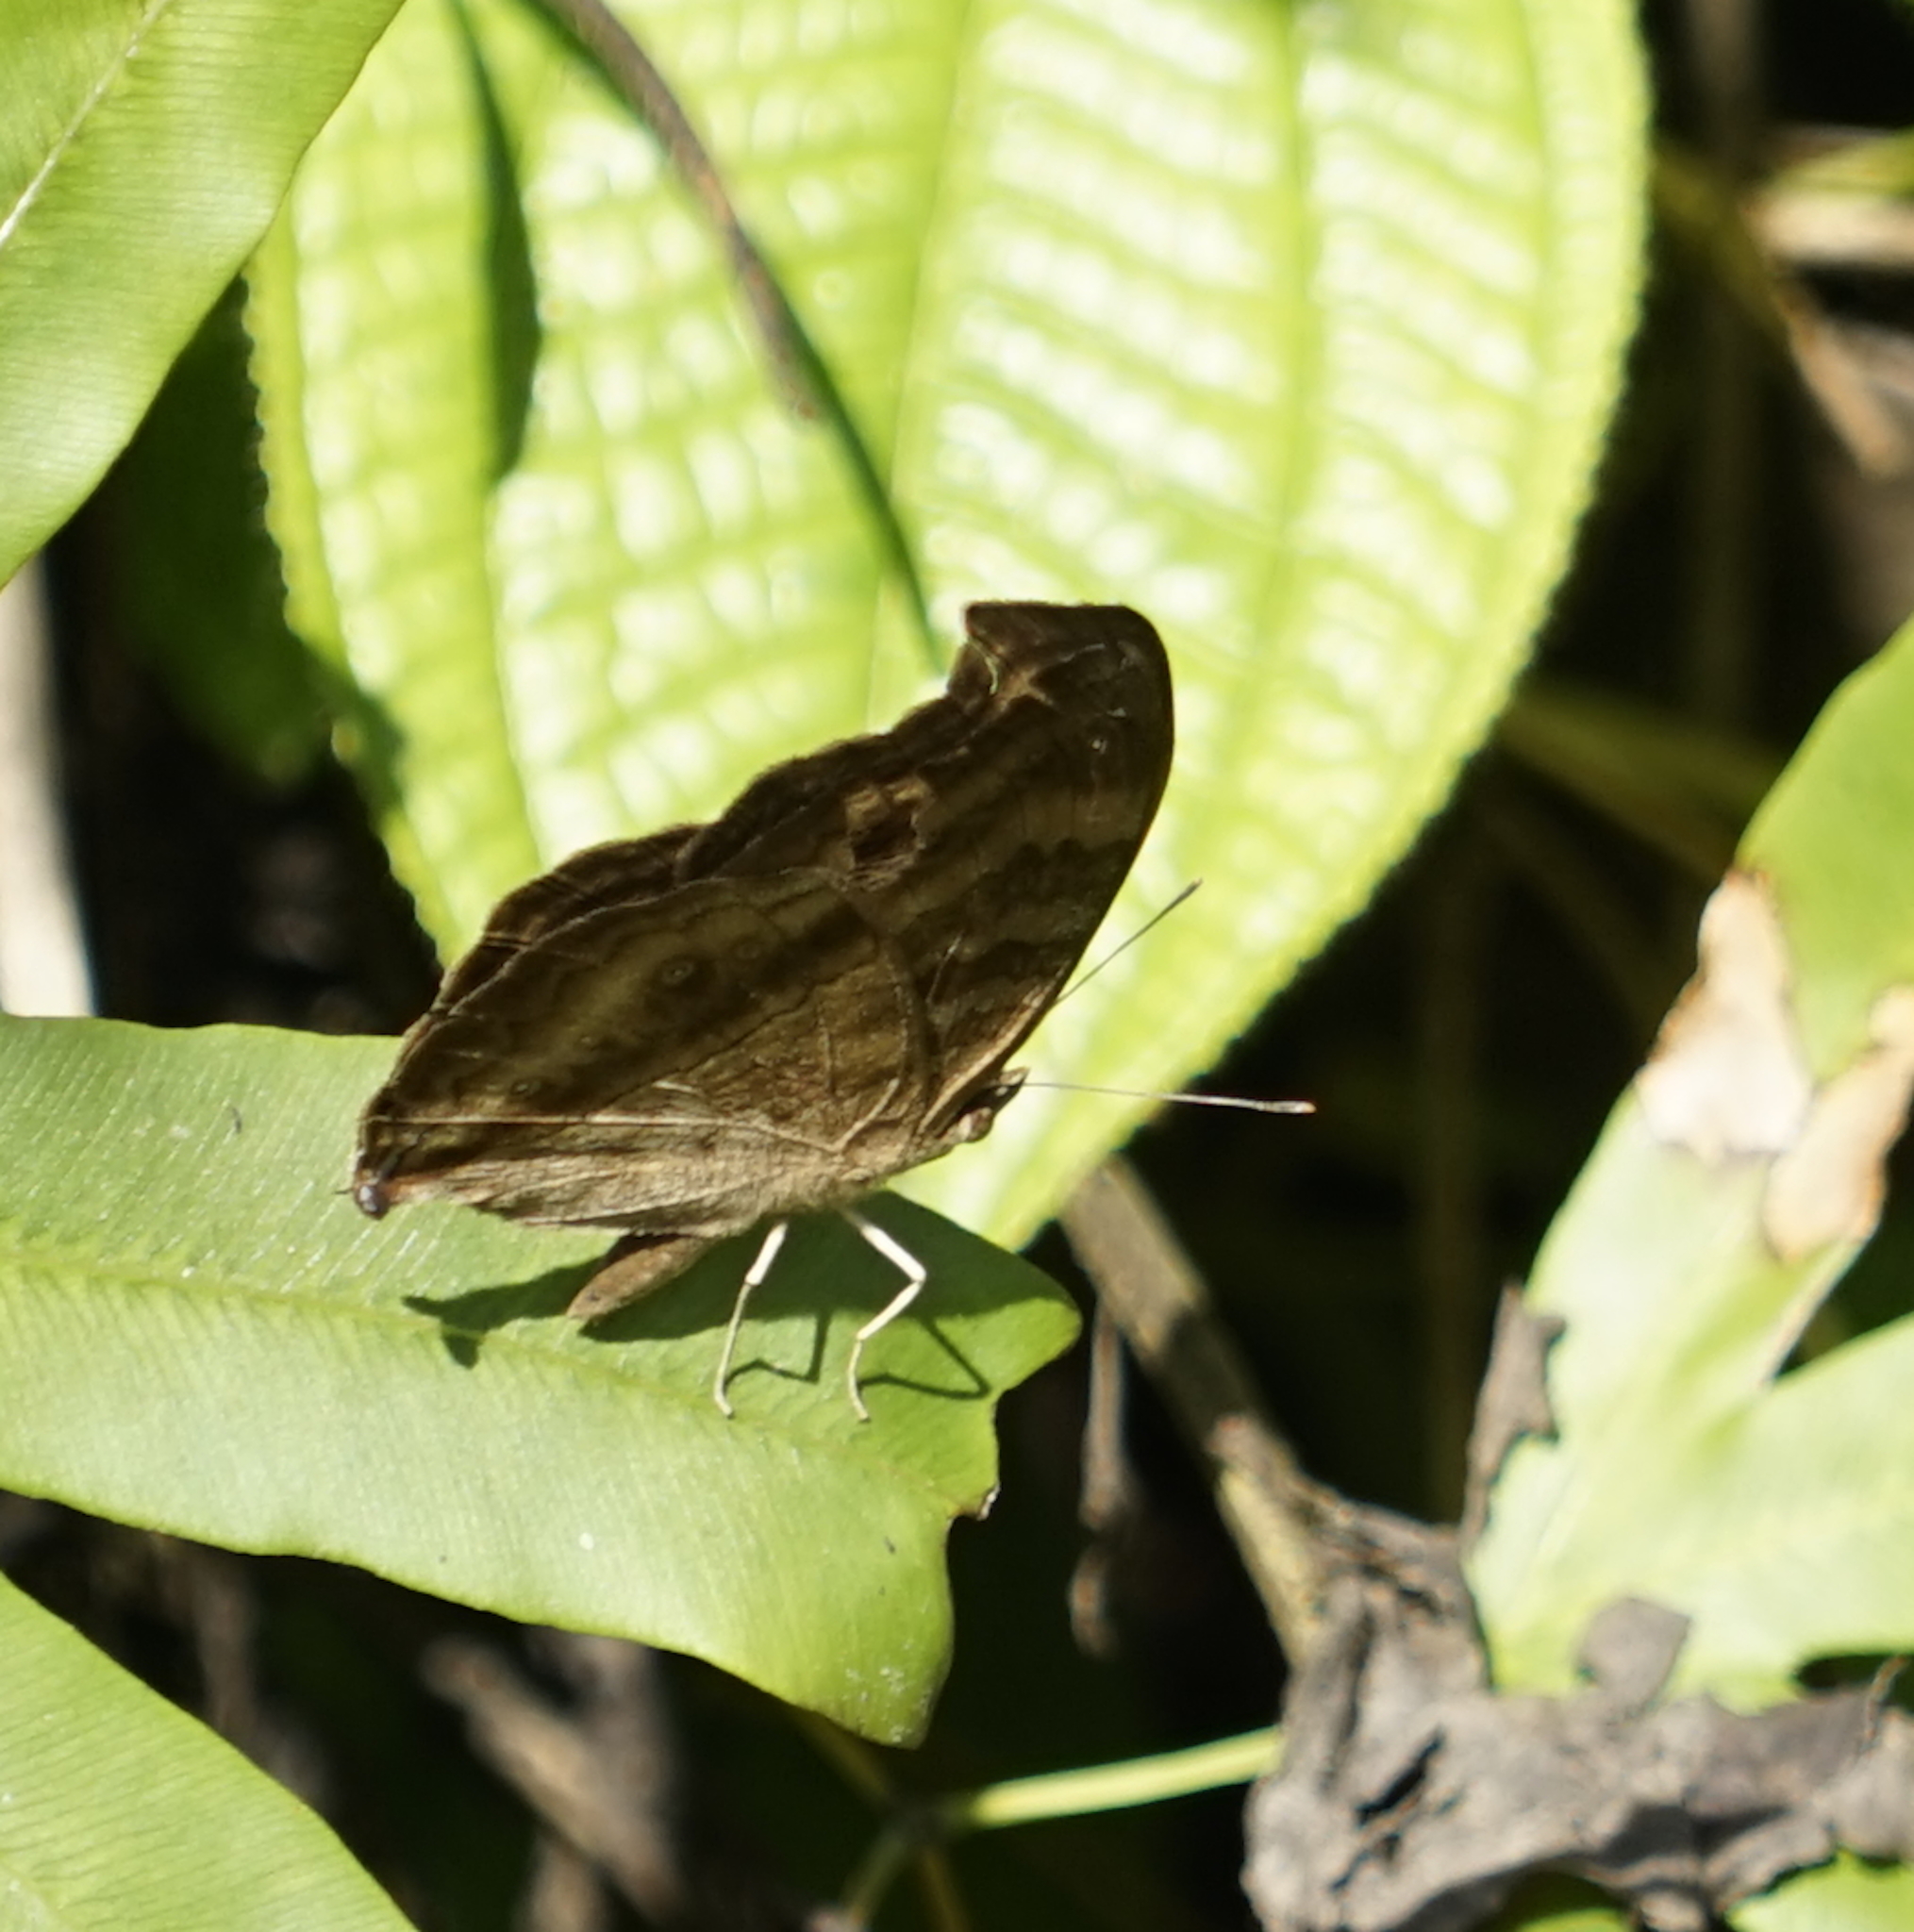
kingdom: Animalia
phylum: Arthropoda
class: Insecta
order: Lepidoptera
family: Nymphalidae
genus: Junonia
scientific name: Junonia iphita
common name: Chocolate pansy
